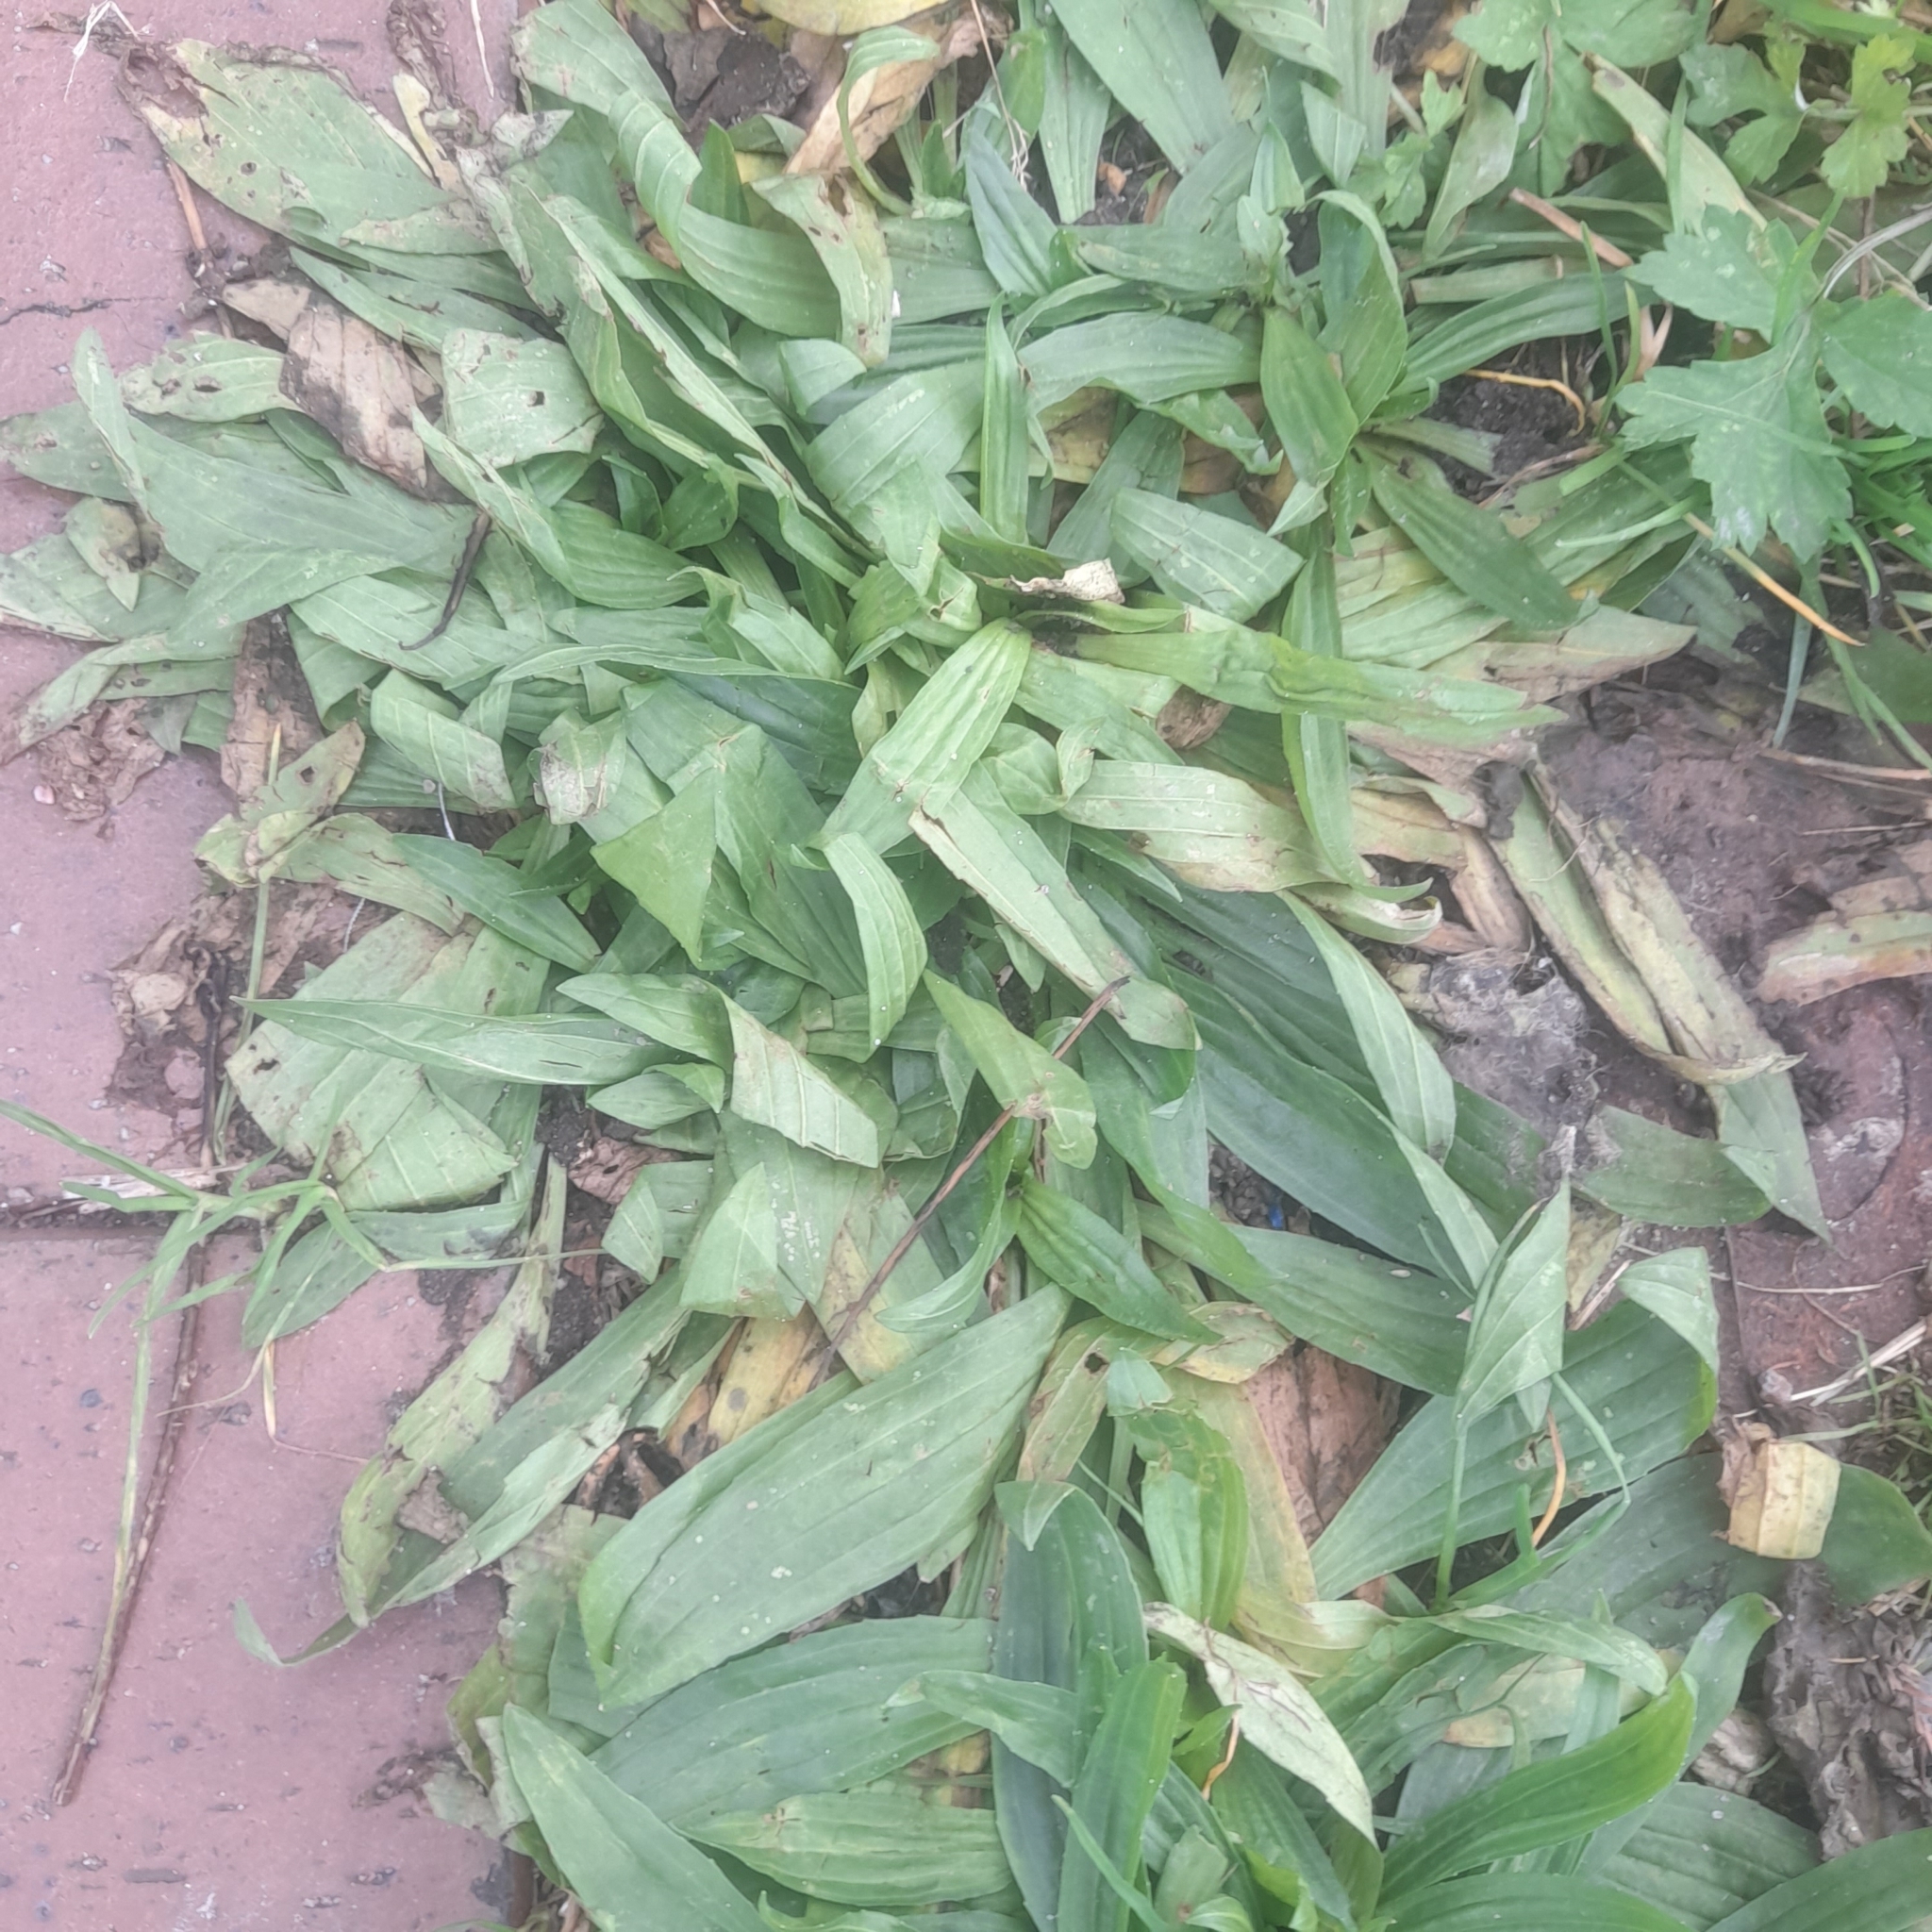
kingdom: Plantae
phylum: Tracheophyta
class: Magnoliopsida
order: Lamiales
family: Plantaginaceae
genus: Plantago
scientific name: Plantago lanceolata
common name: Ribwort plantain
